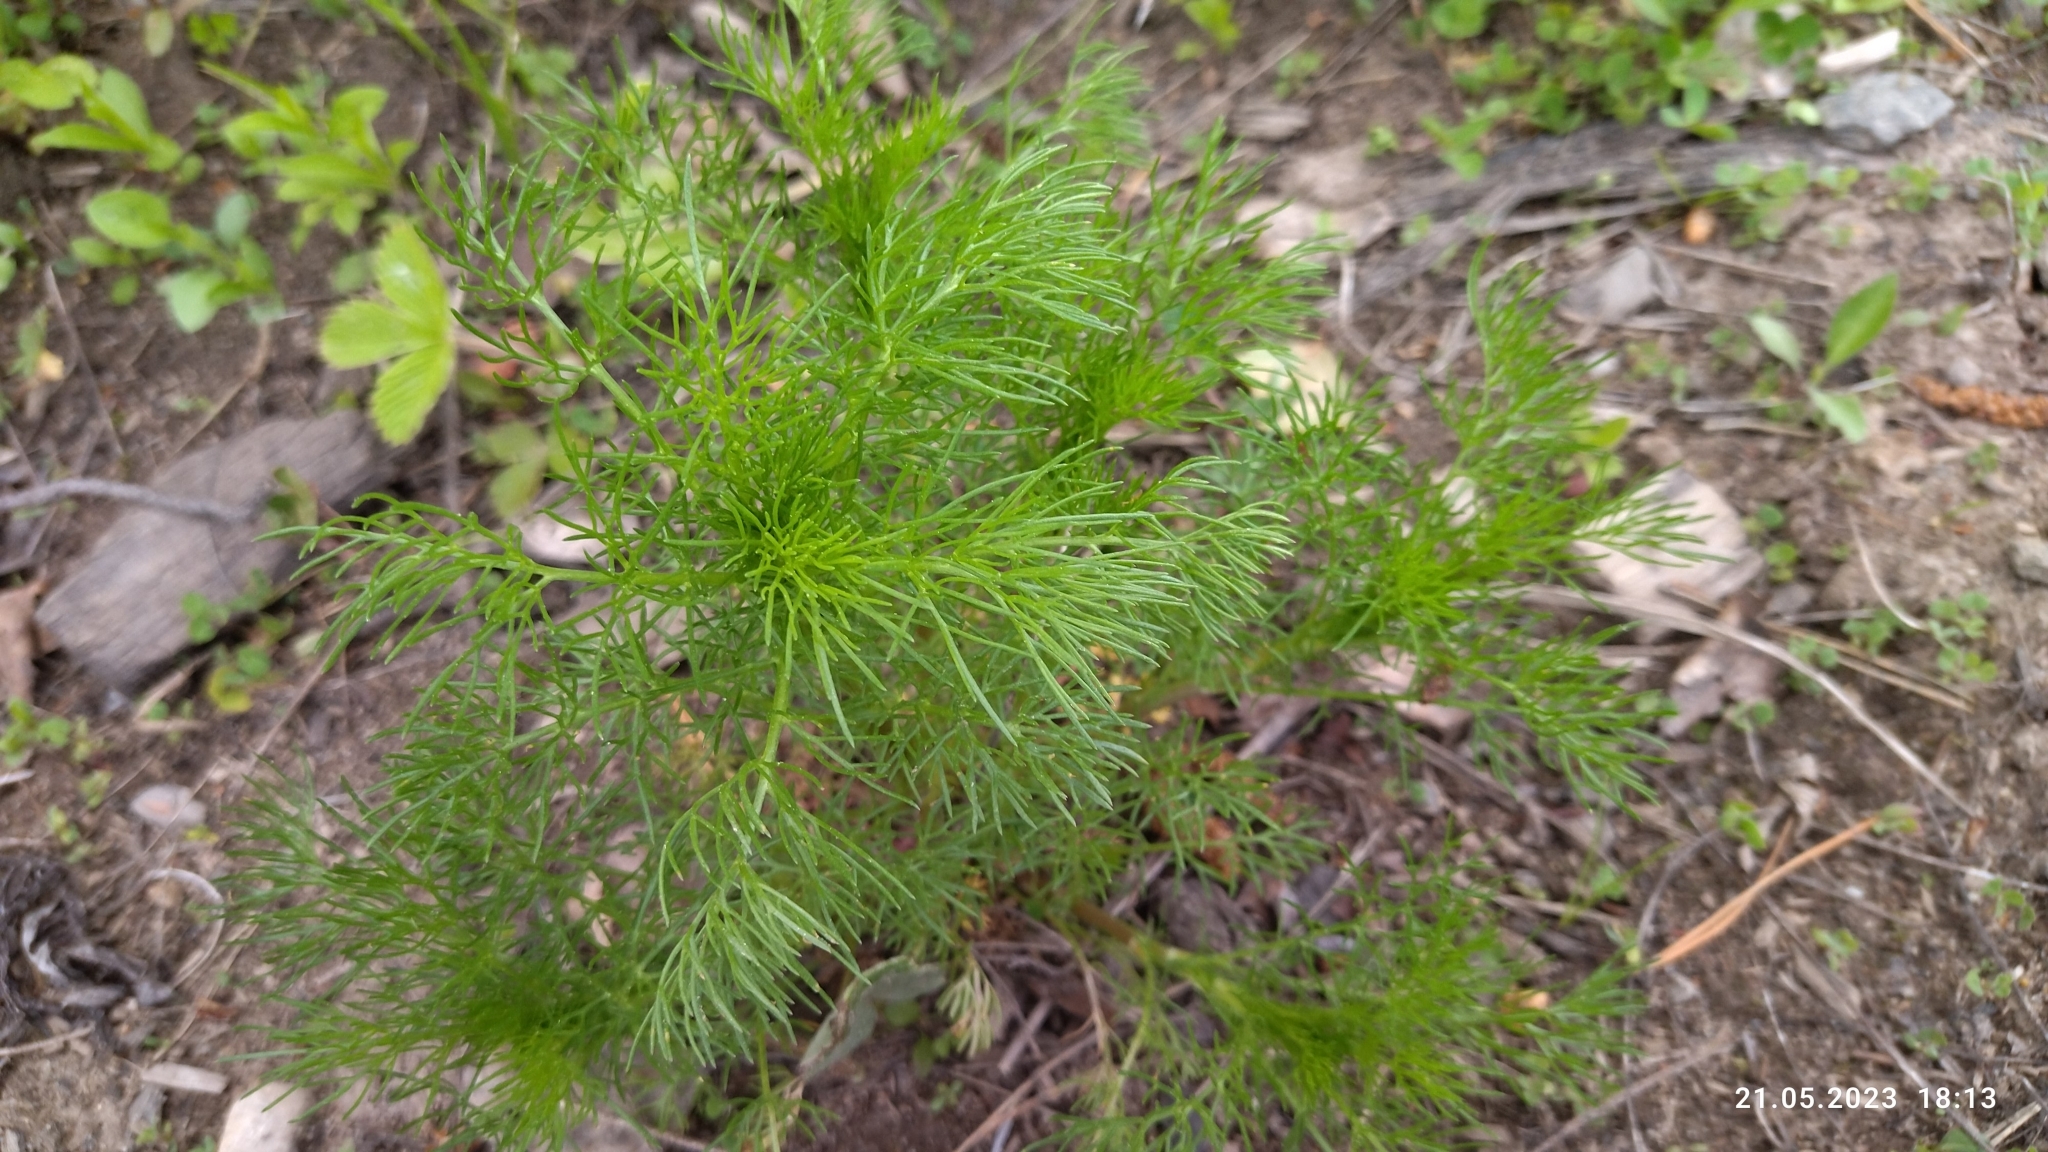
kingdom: Plantae
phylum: Tracheophyta
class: Magnoliopsida
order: Asterales
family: Asteraceae
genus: Tripleurospermum
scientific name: Tripleurospermum inodorum
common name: Scentless mayweed
